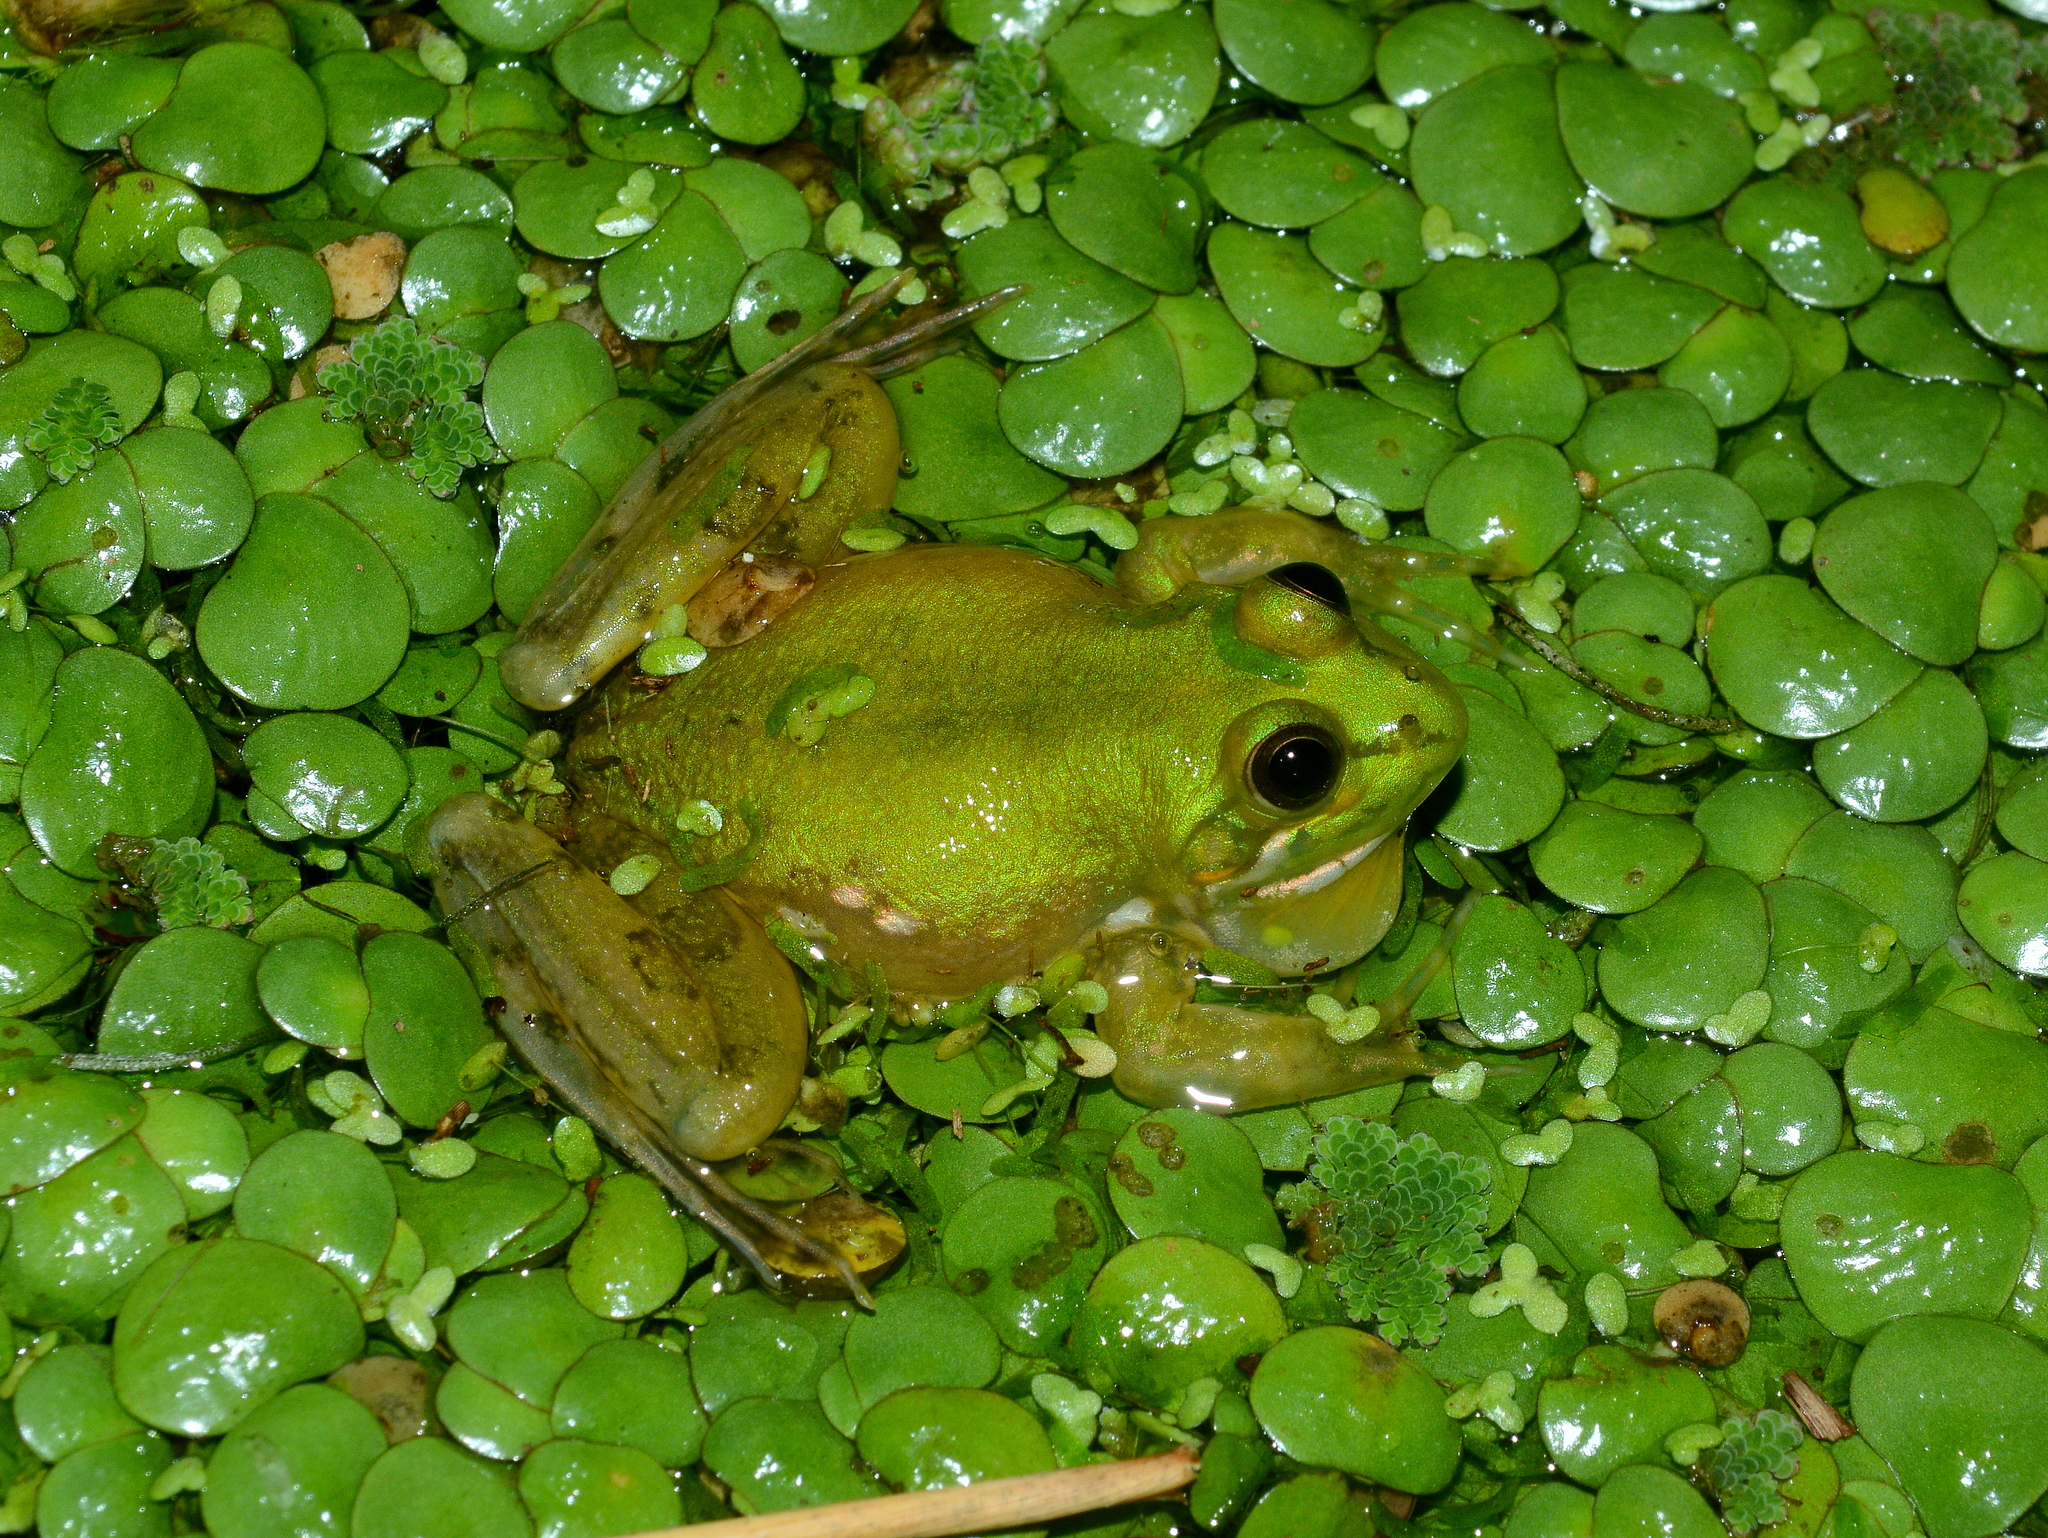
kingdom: Animalia
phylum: Chordata
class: Amphibia
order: Anura
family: Hylidae
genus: Pseudis
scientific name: Pseudis minuta
